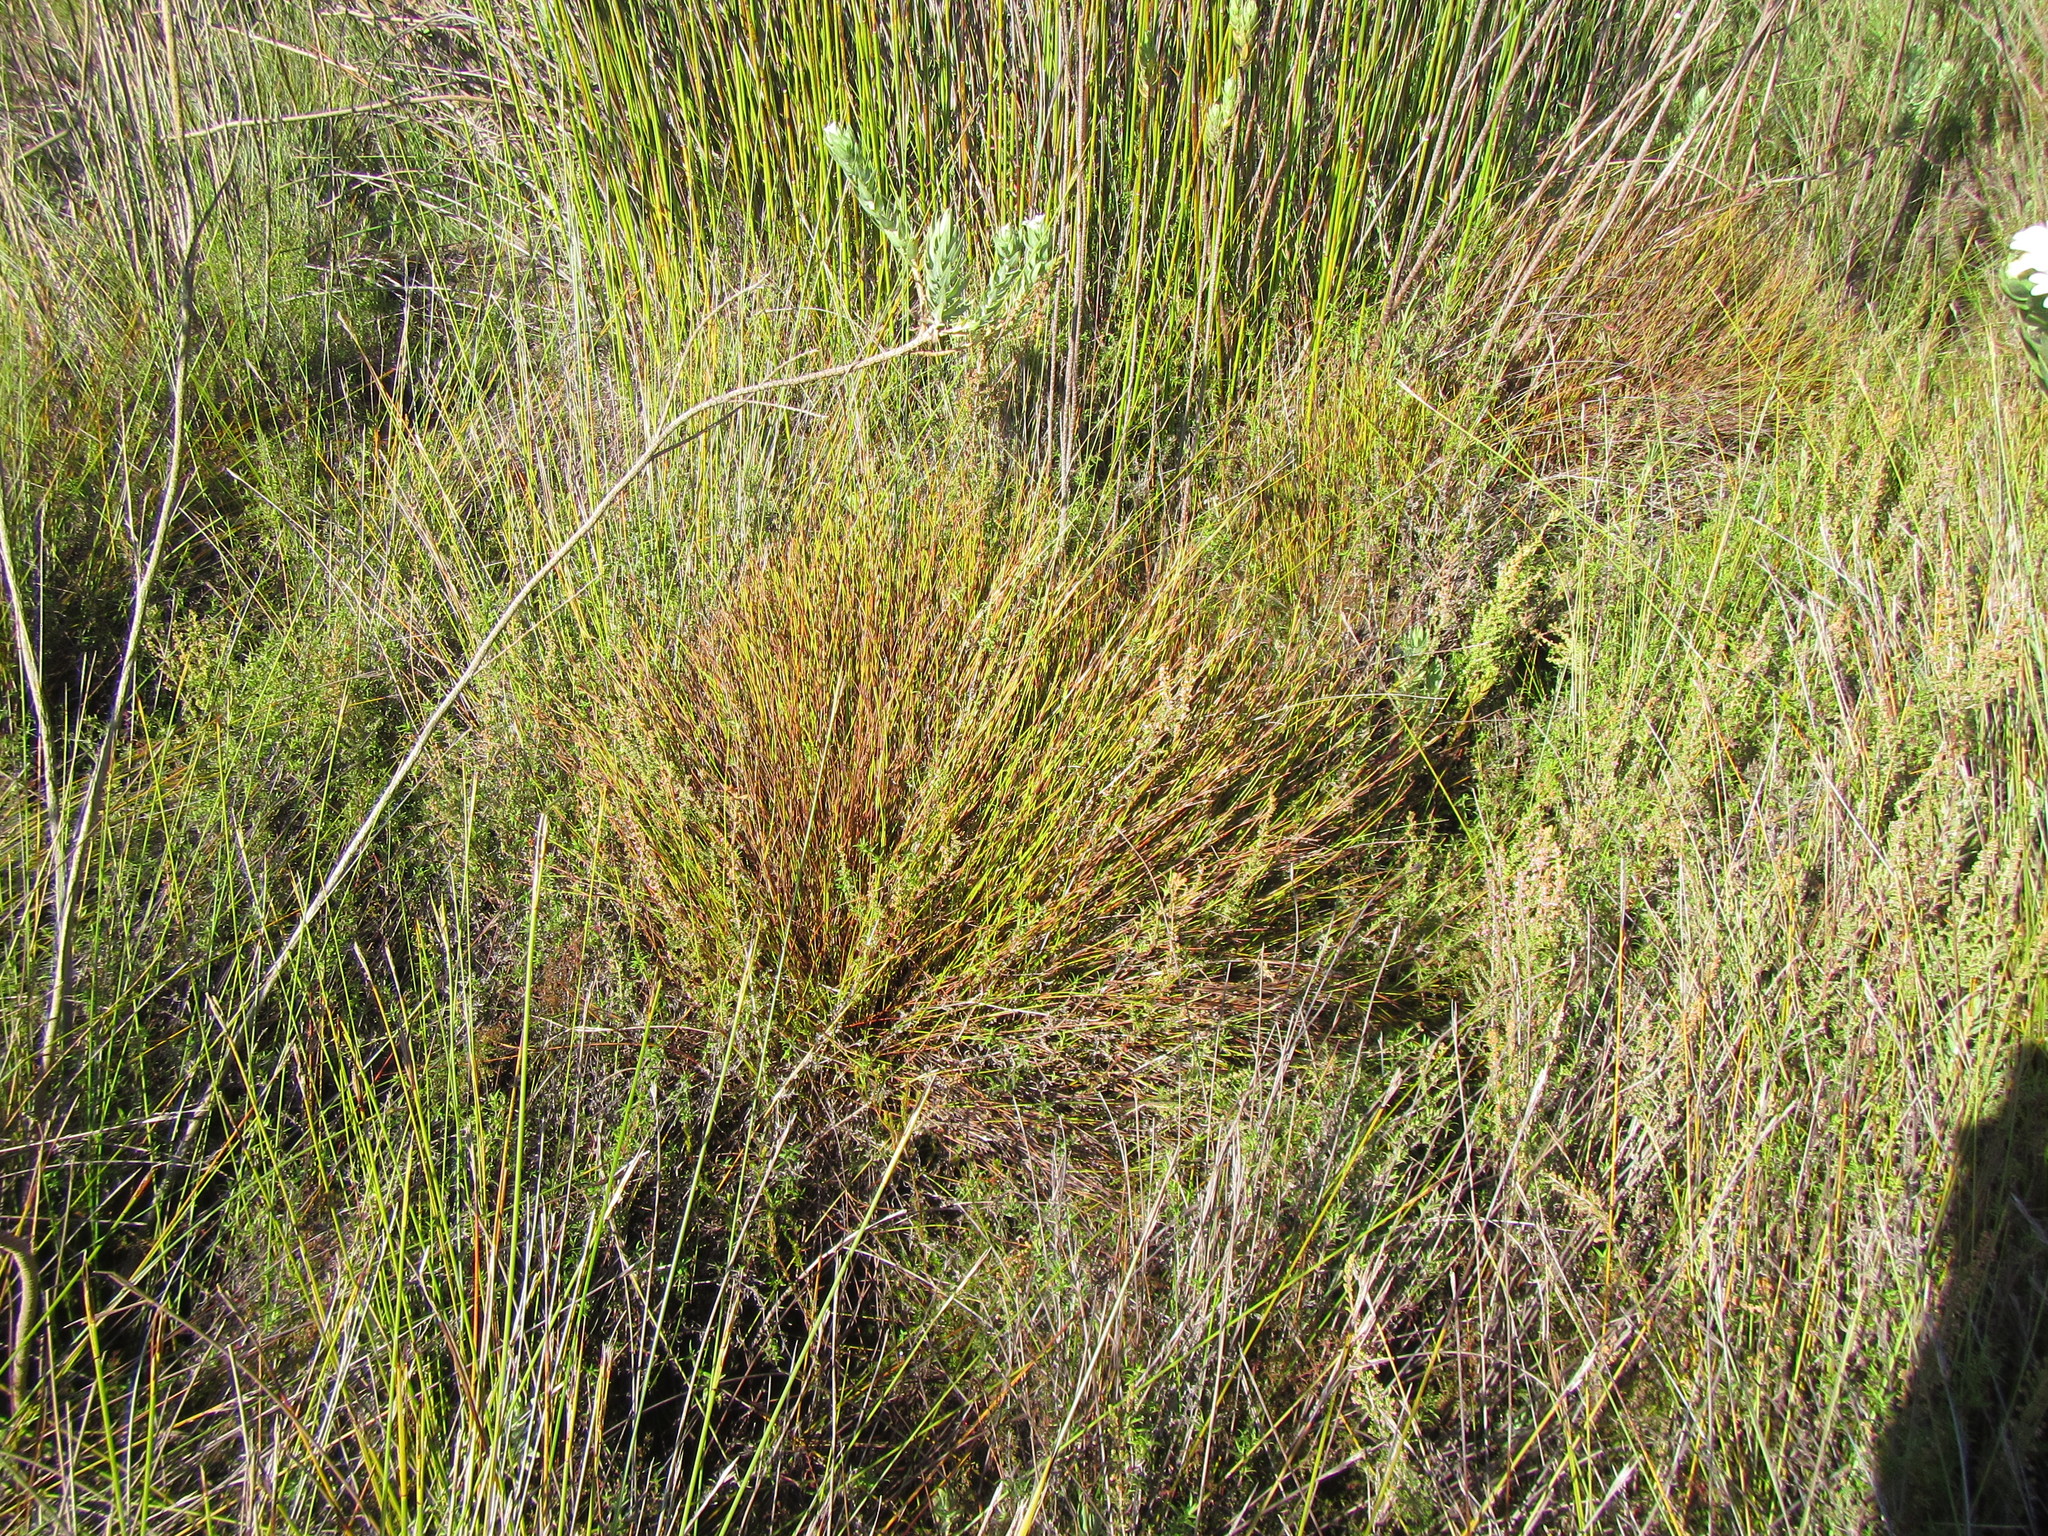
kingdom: Plantae
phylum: Tracheophyta
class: Liliopsida
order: Poales
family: Restionaceae
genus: Soroveta
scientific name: Soroveta ambigua
